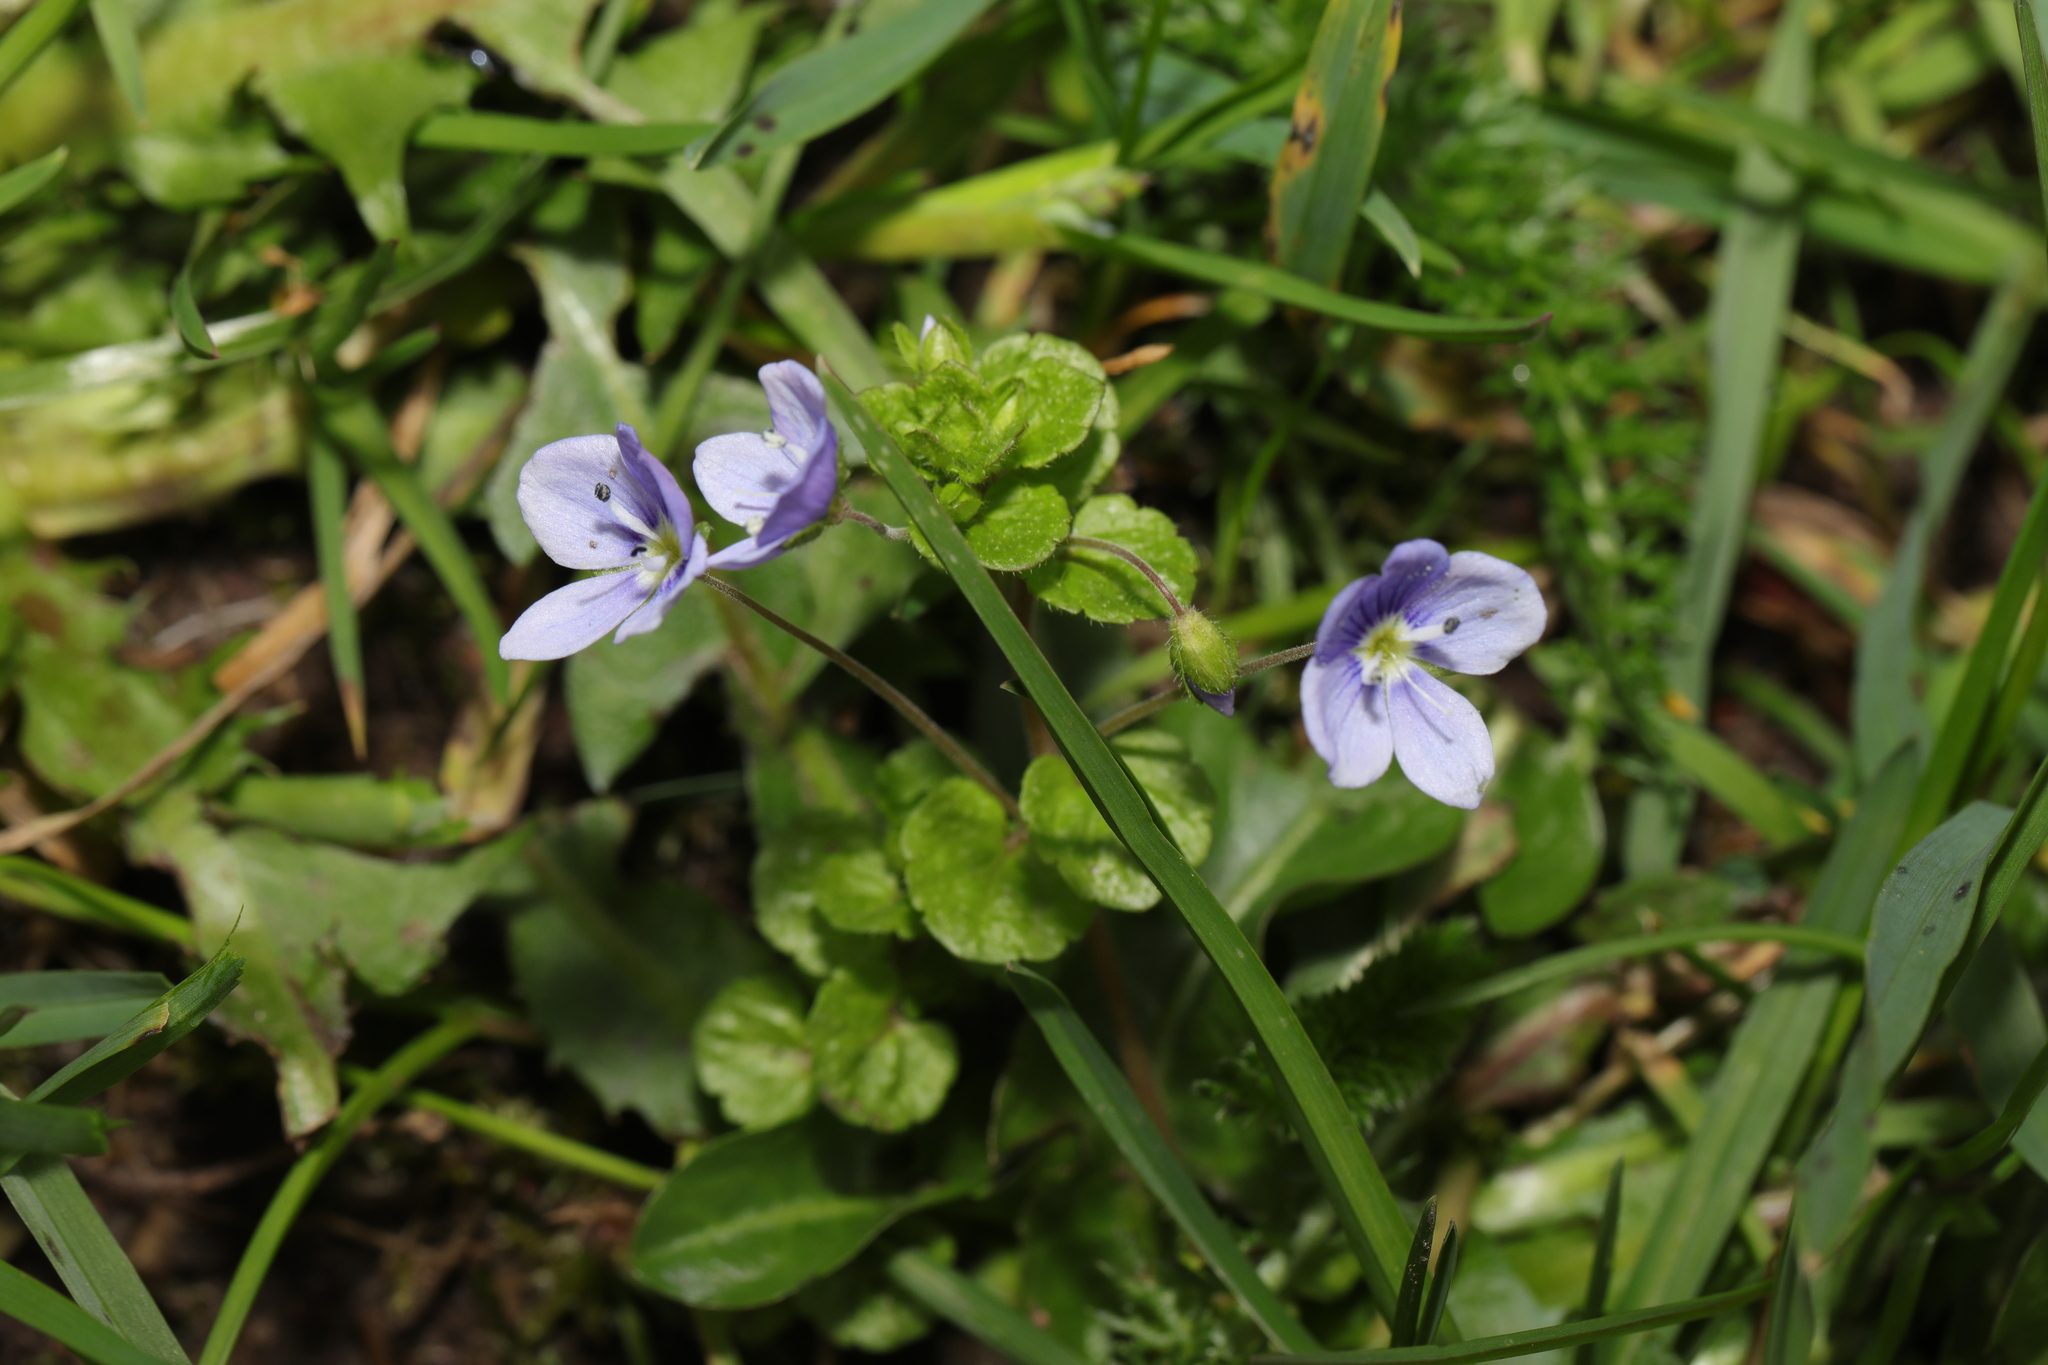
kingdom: Plantae
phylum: Tracheophyta
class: Magnoliopsida
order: Lamiales
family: Plantaginaceae
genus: Veronica
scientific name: Veronica filiformis
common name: Slender speedwell
